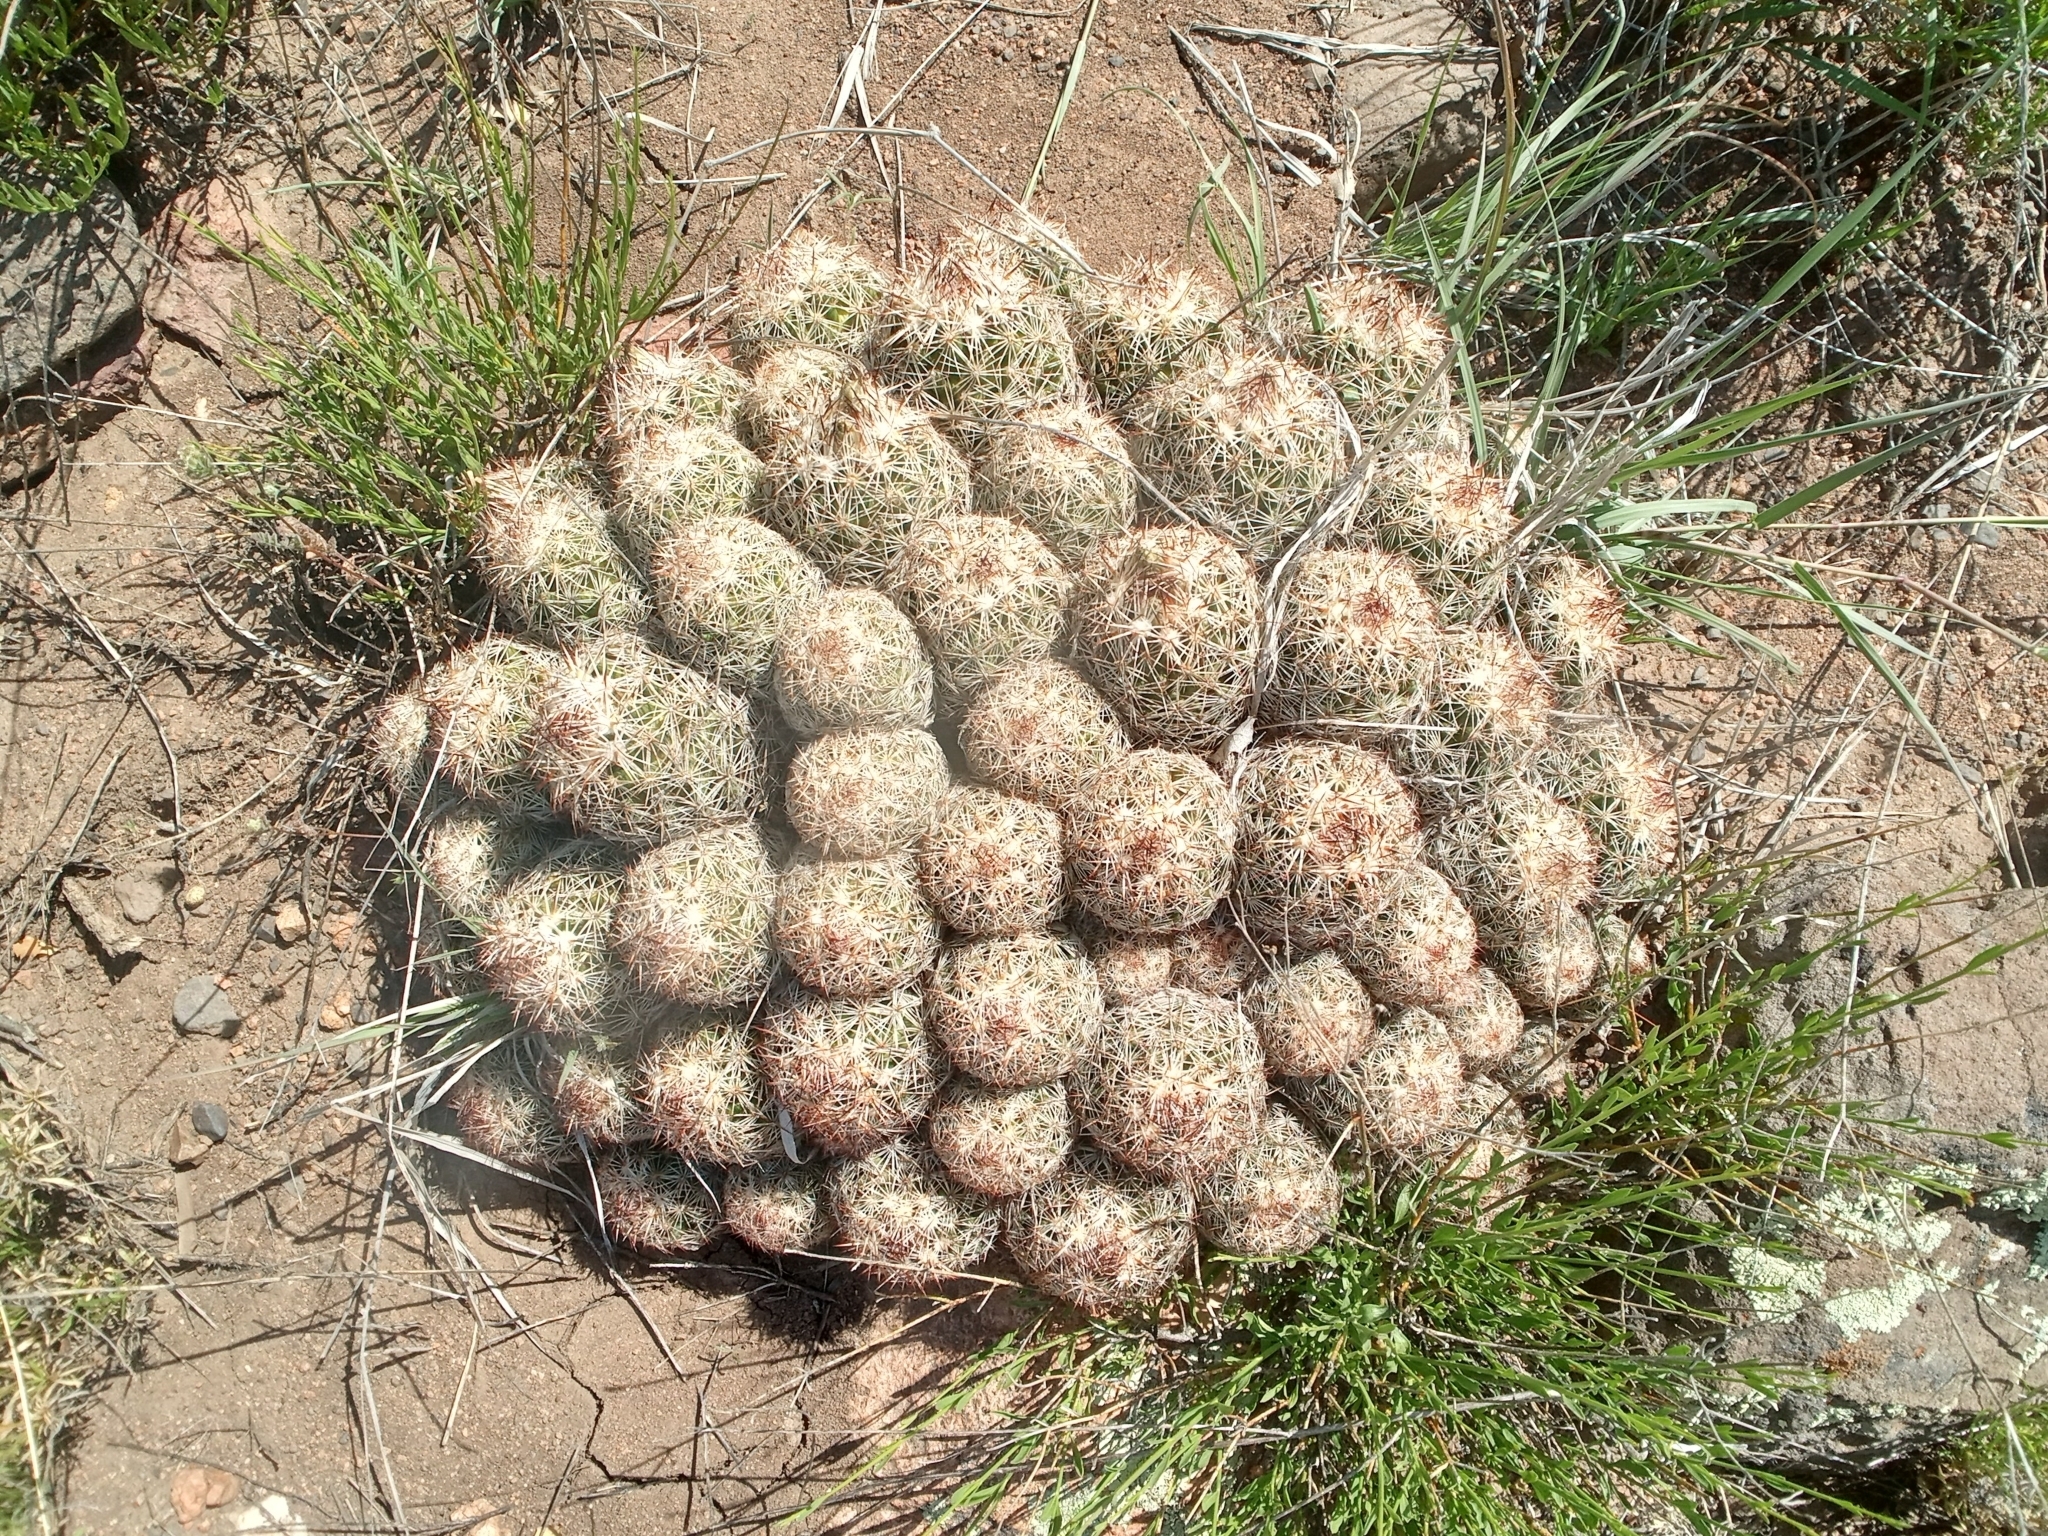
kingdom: Plantae
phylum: Tracheophyta
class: Magnoliopsida
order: Caryophyllales
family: Cactaceae
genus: Pelecyphora
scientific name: Pelecyphora vivipara
